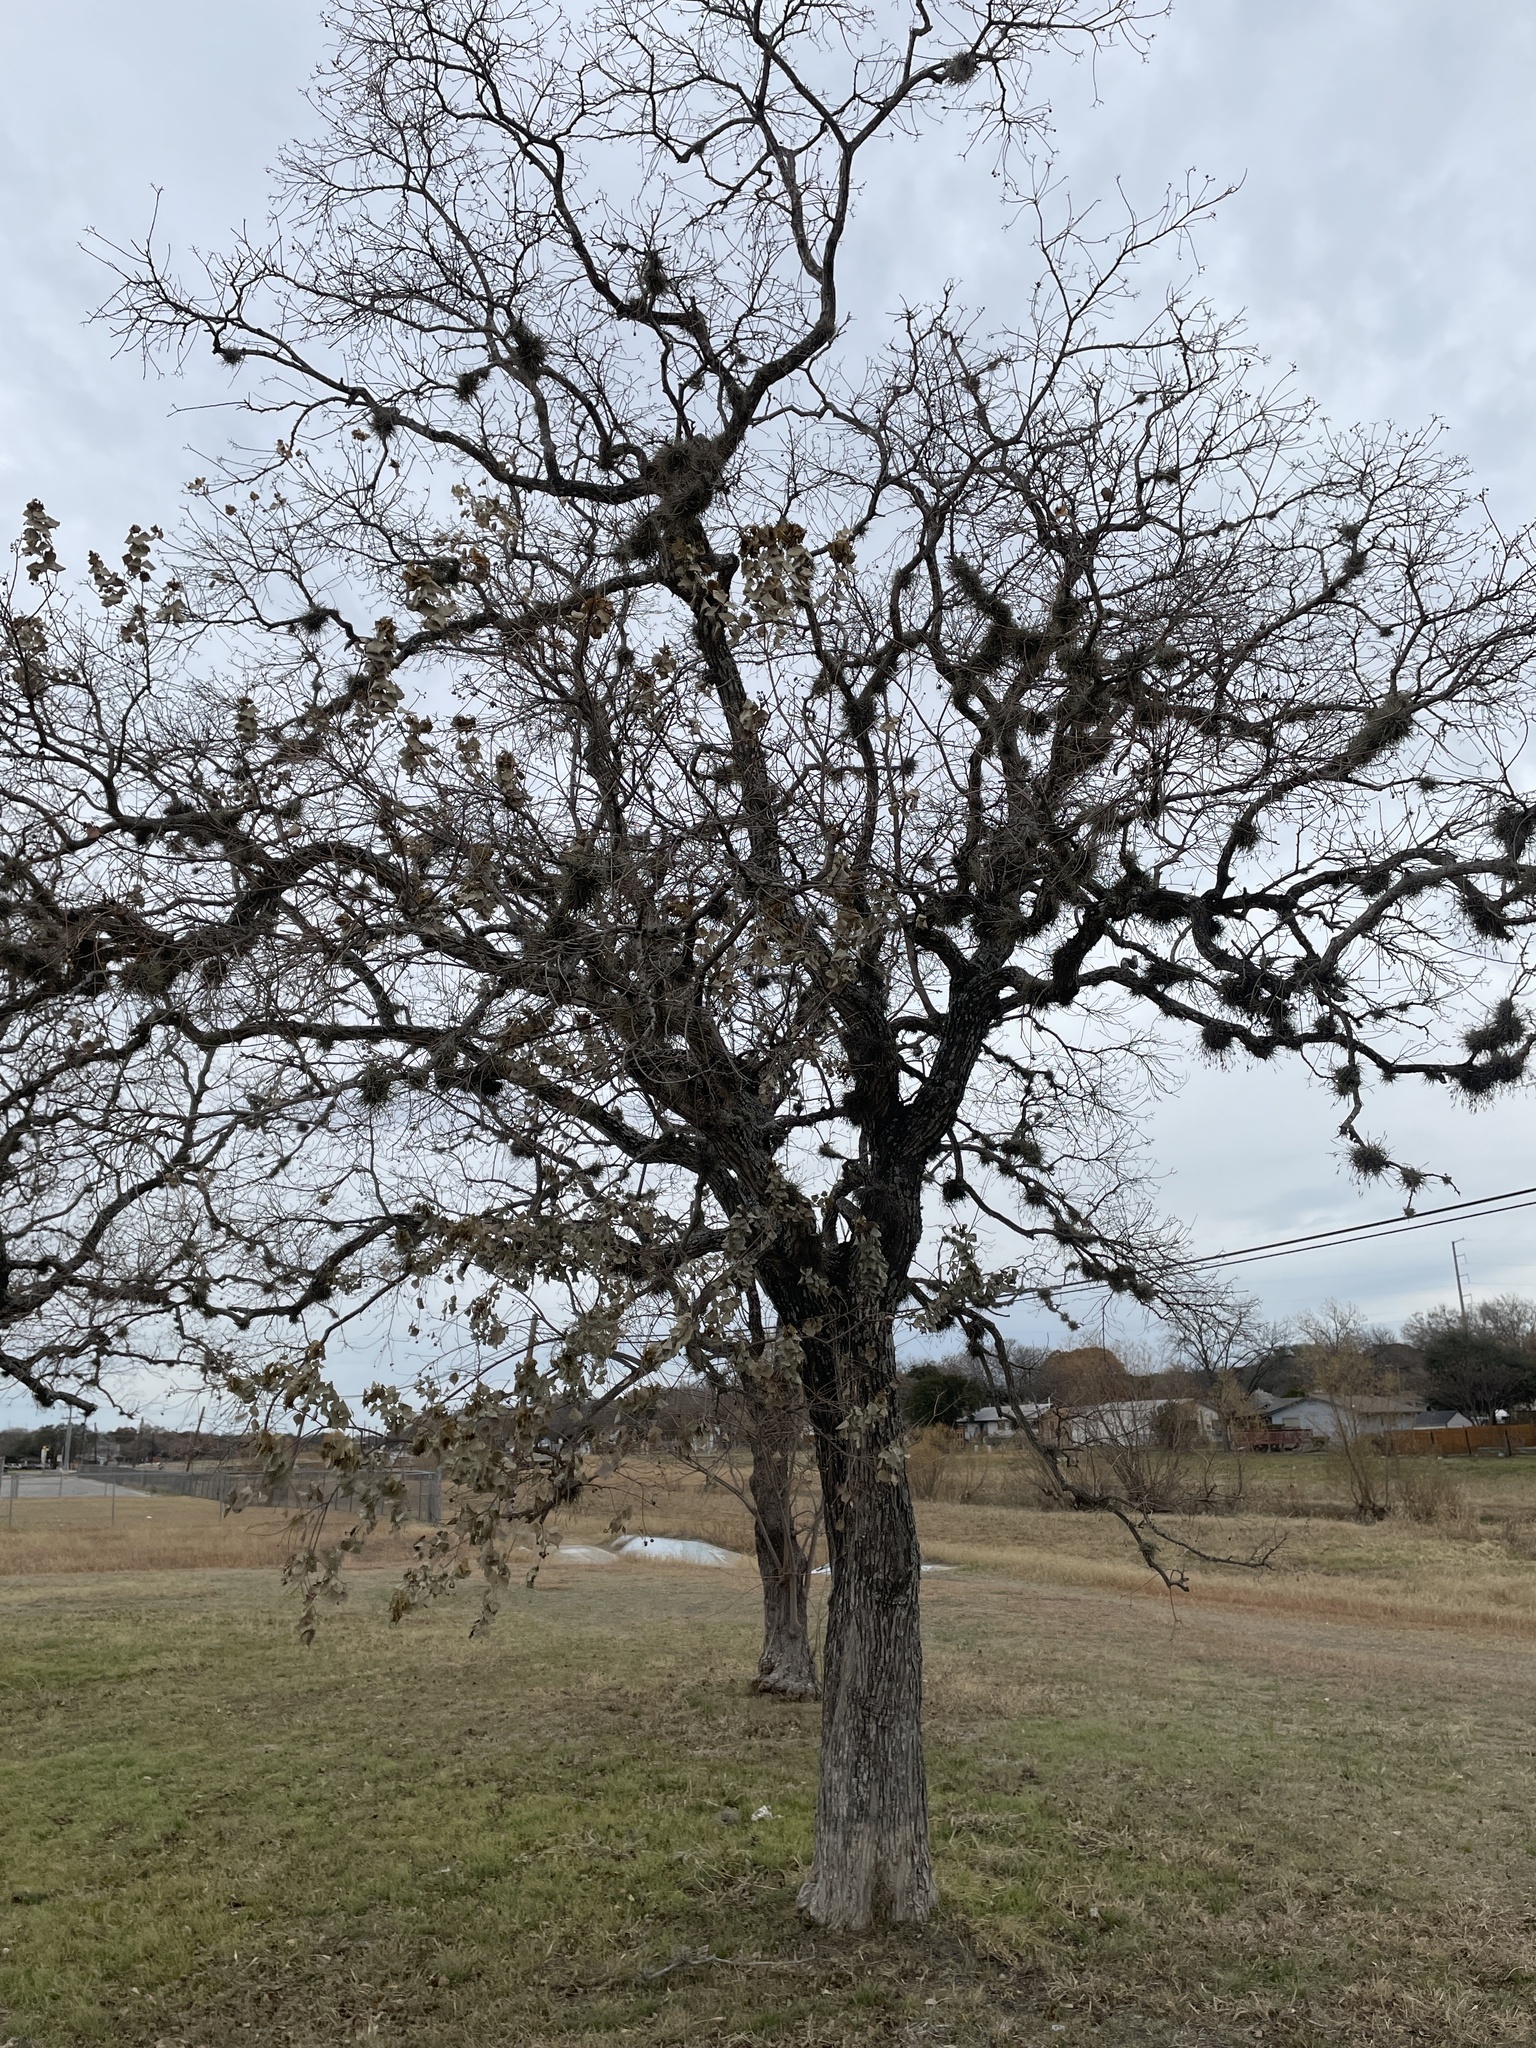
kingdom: Plantae
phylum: Tracheophyta
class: Magnoliopsida
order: Malpighiales
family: Euphorbiaceae
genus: Triadica
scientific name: Triadica sebifera
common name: Chinese tallow
